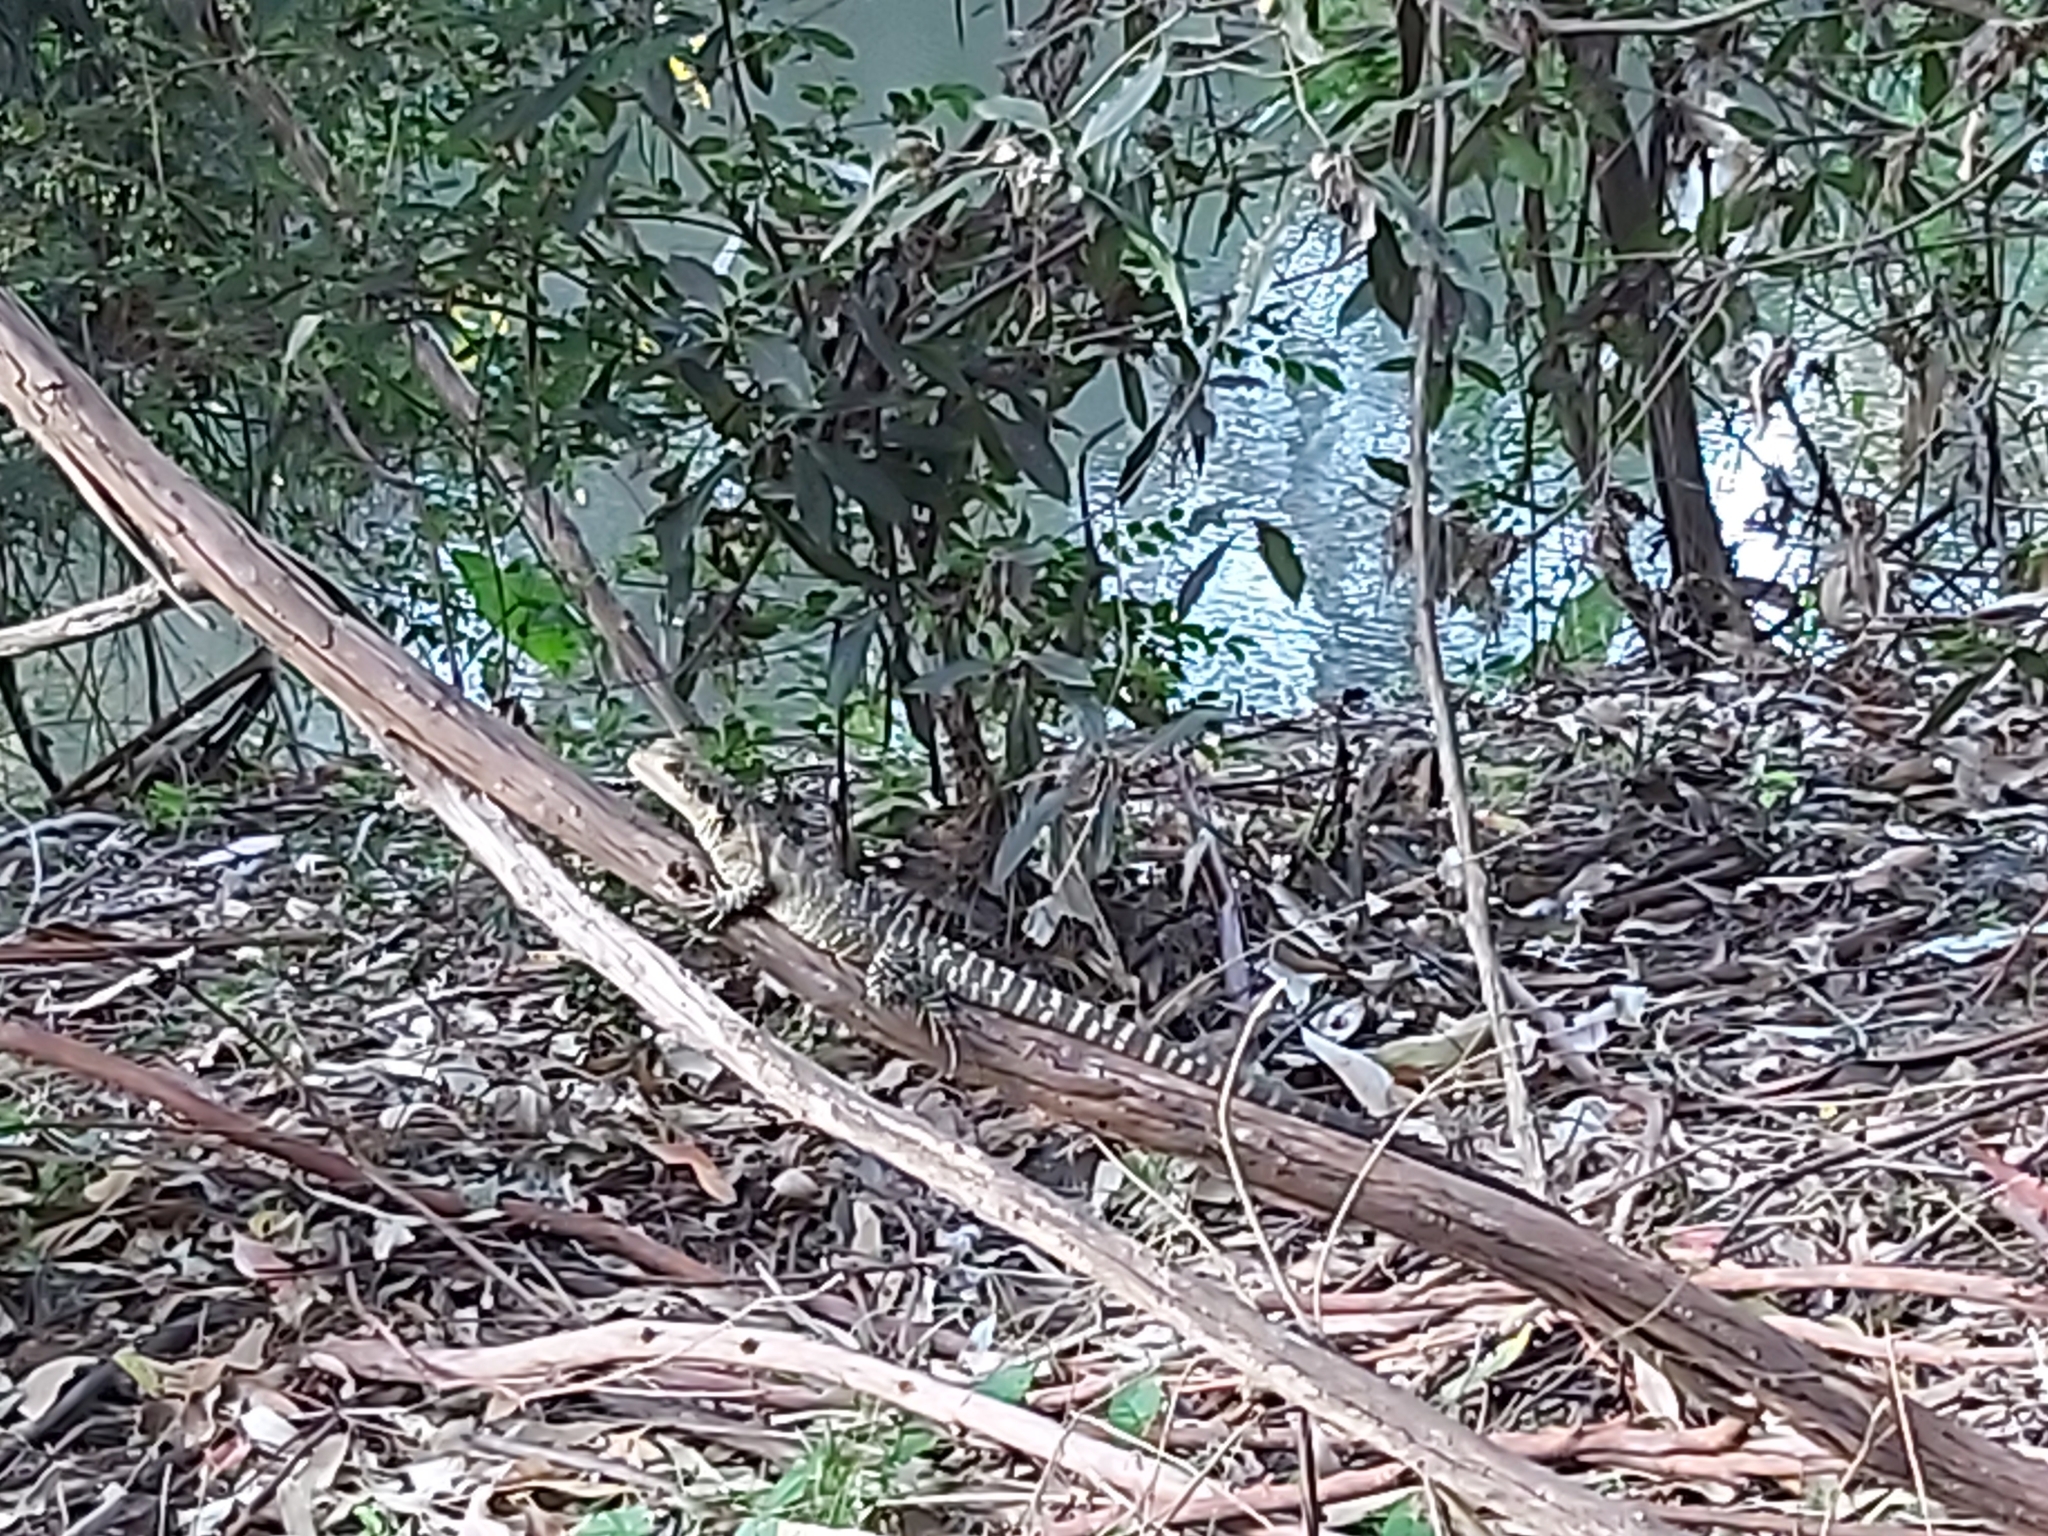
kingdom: Animalia
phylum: Chordata
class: Squamata
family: Agamidae
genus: Intellagama
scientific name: Intellagama lesueurii
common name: Eastern water dragon
